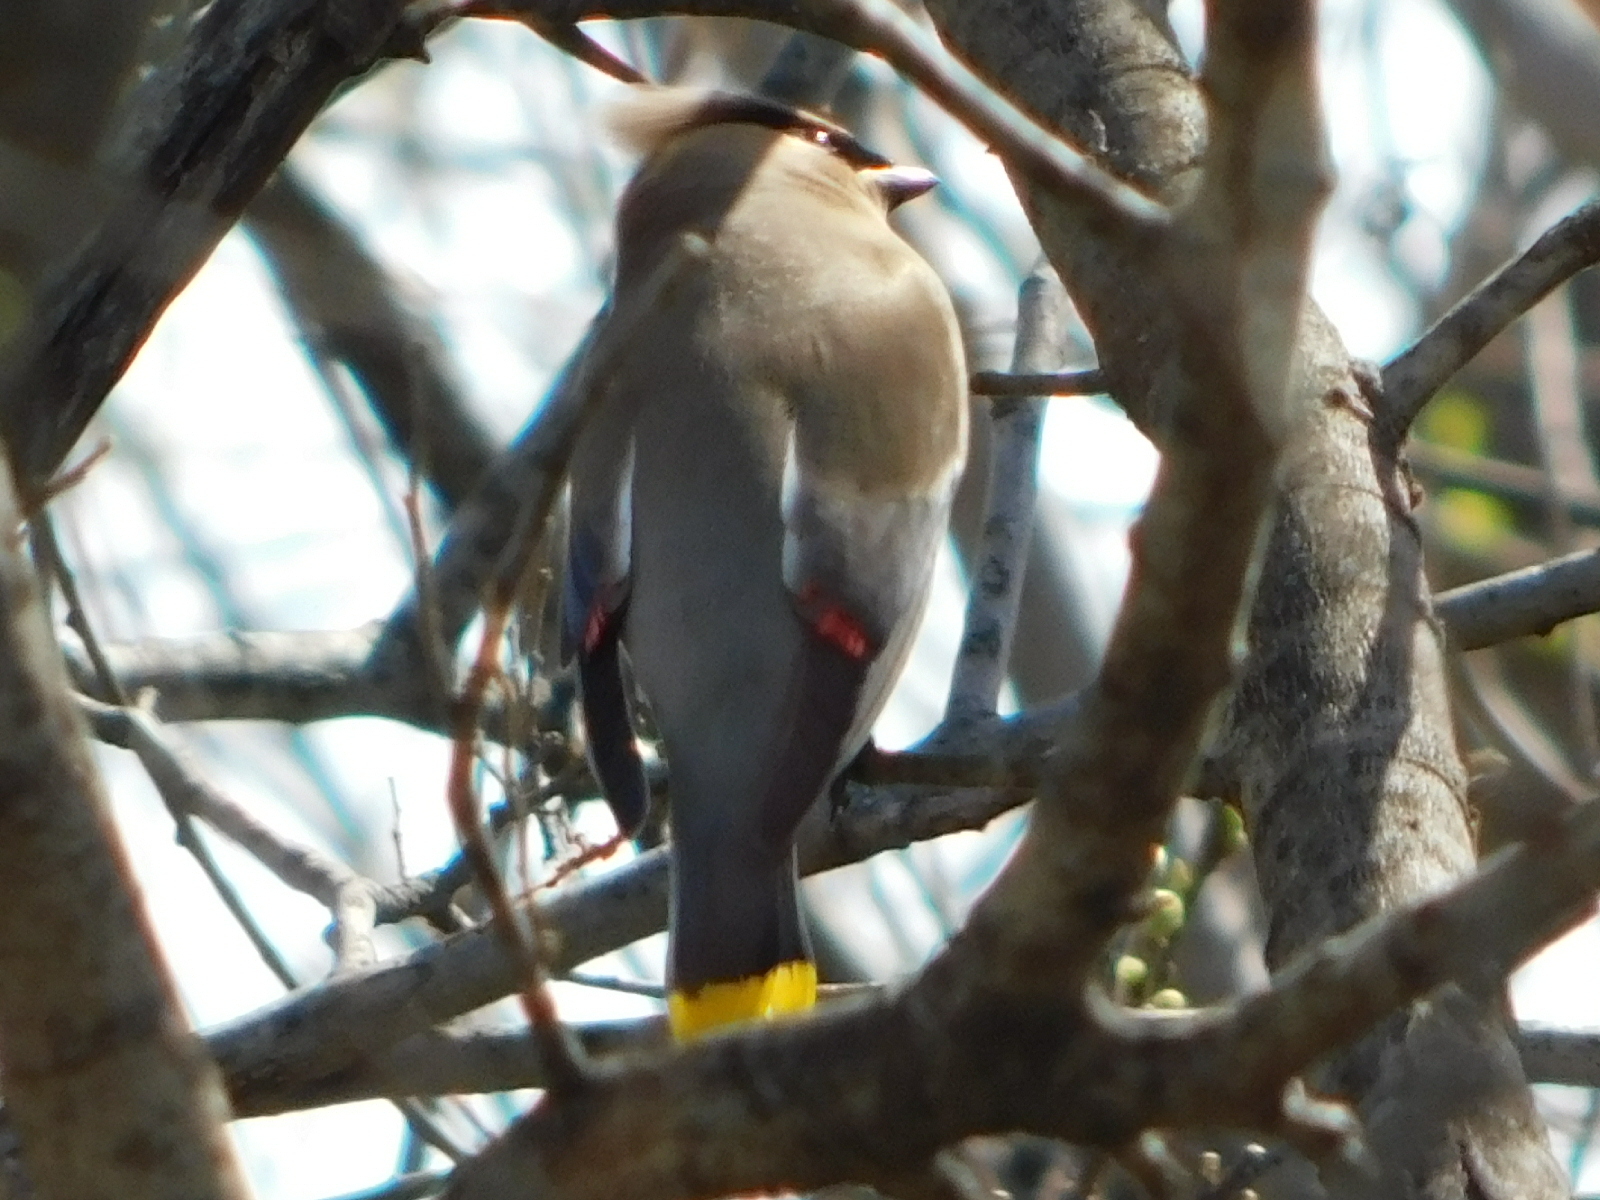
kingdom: Animalia
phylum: Chordata
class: Aves
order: Passeriformes
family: Bombycillidae
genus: Bombycilla
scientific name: Bombycilla cedrorum
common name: Cedar waxwing
